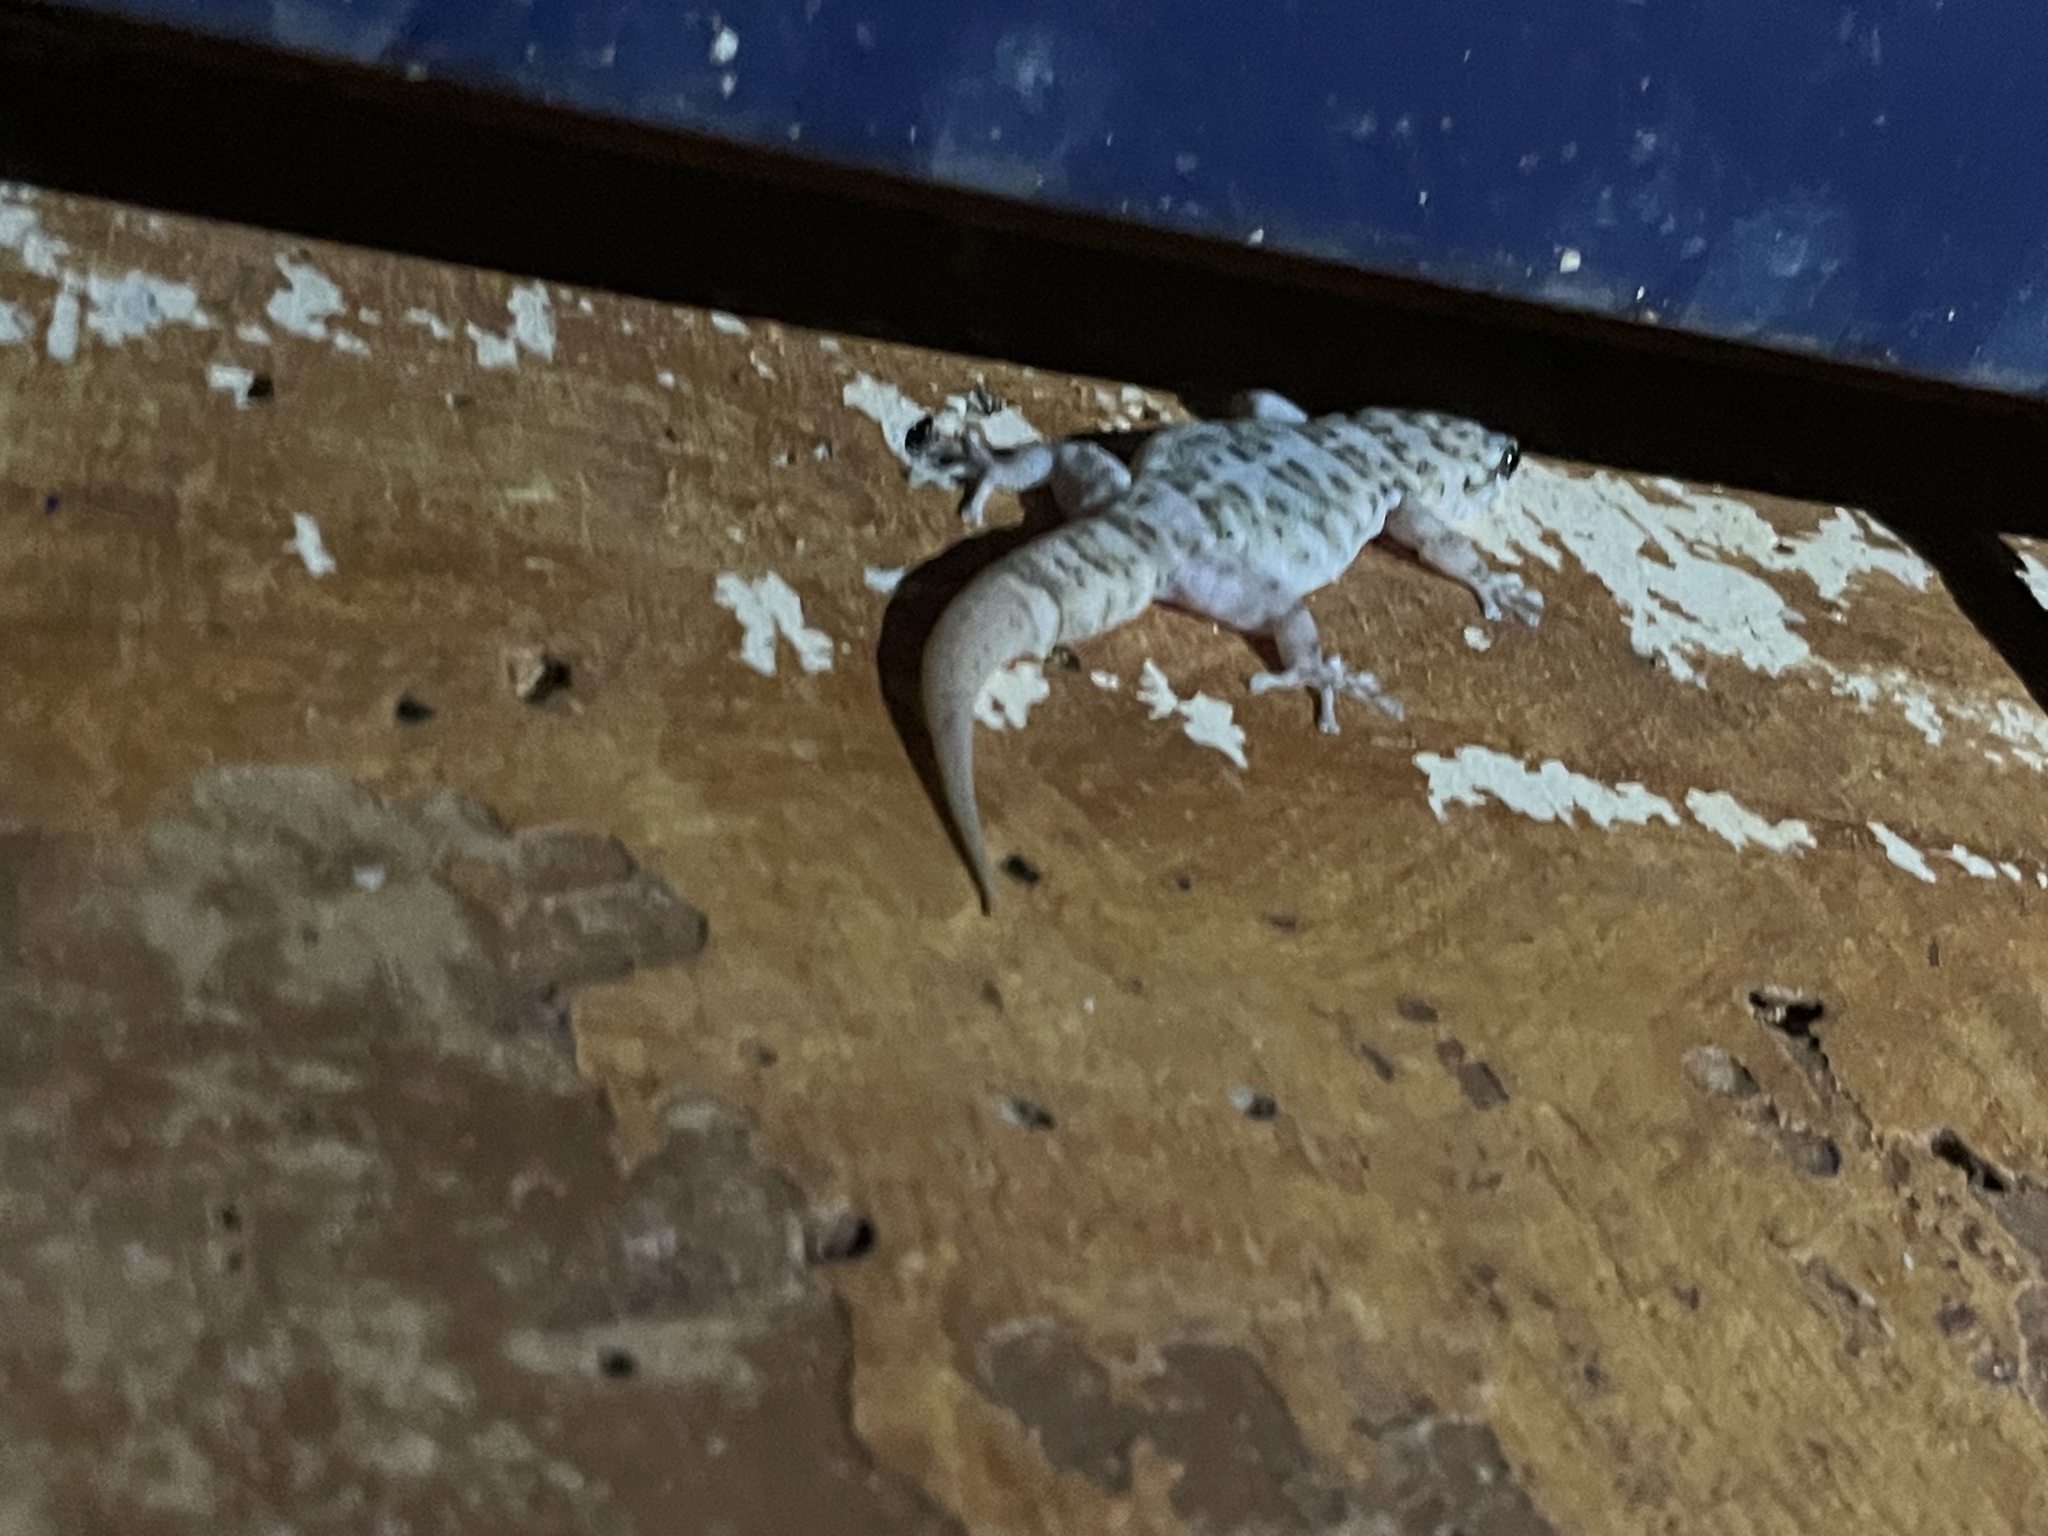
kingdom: Animalia
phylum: Chordata
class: Squamata
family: Phyllodactylidae
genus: Phyllodactylus
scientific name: Phyllodactylus unctus
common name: San lucan  gecko
